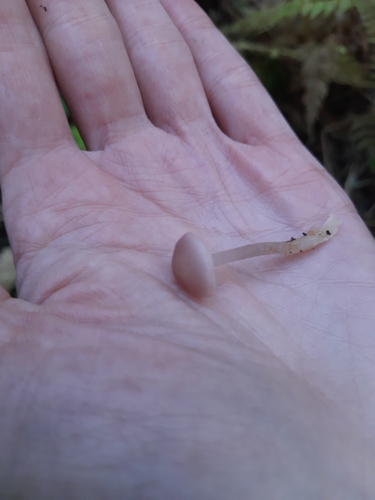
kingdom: Fungi
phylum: Basidiomycota
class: Agaricomycetes
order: Agaricales
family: Mycenaceae
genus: Mycena
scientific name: Mycena pura
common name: Lilac bonnet
